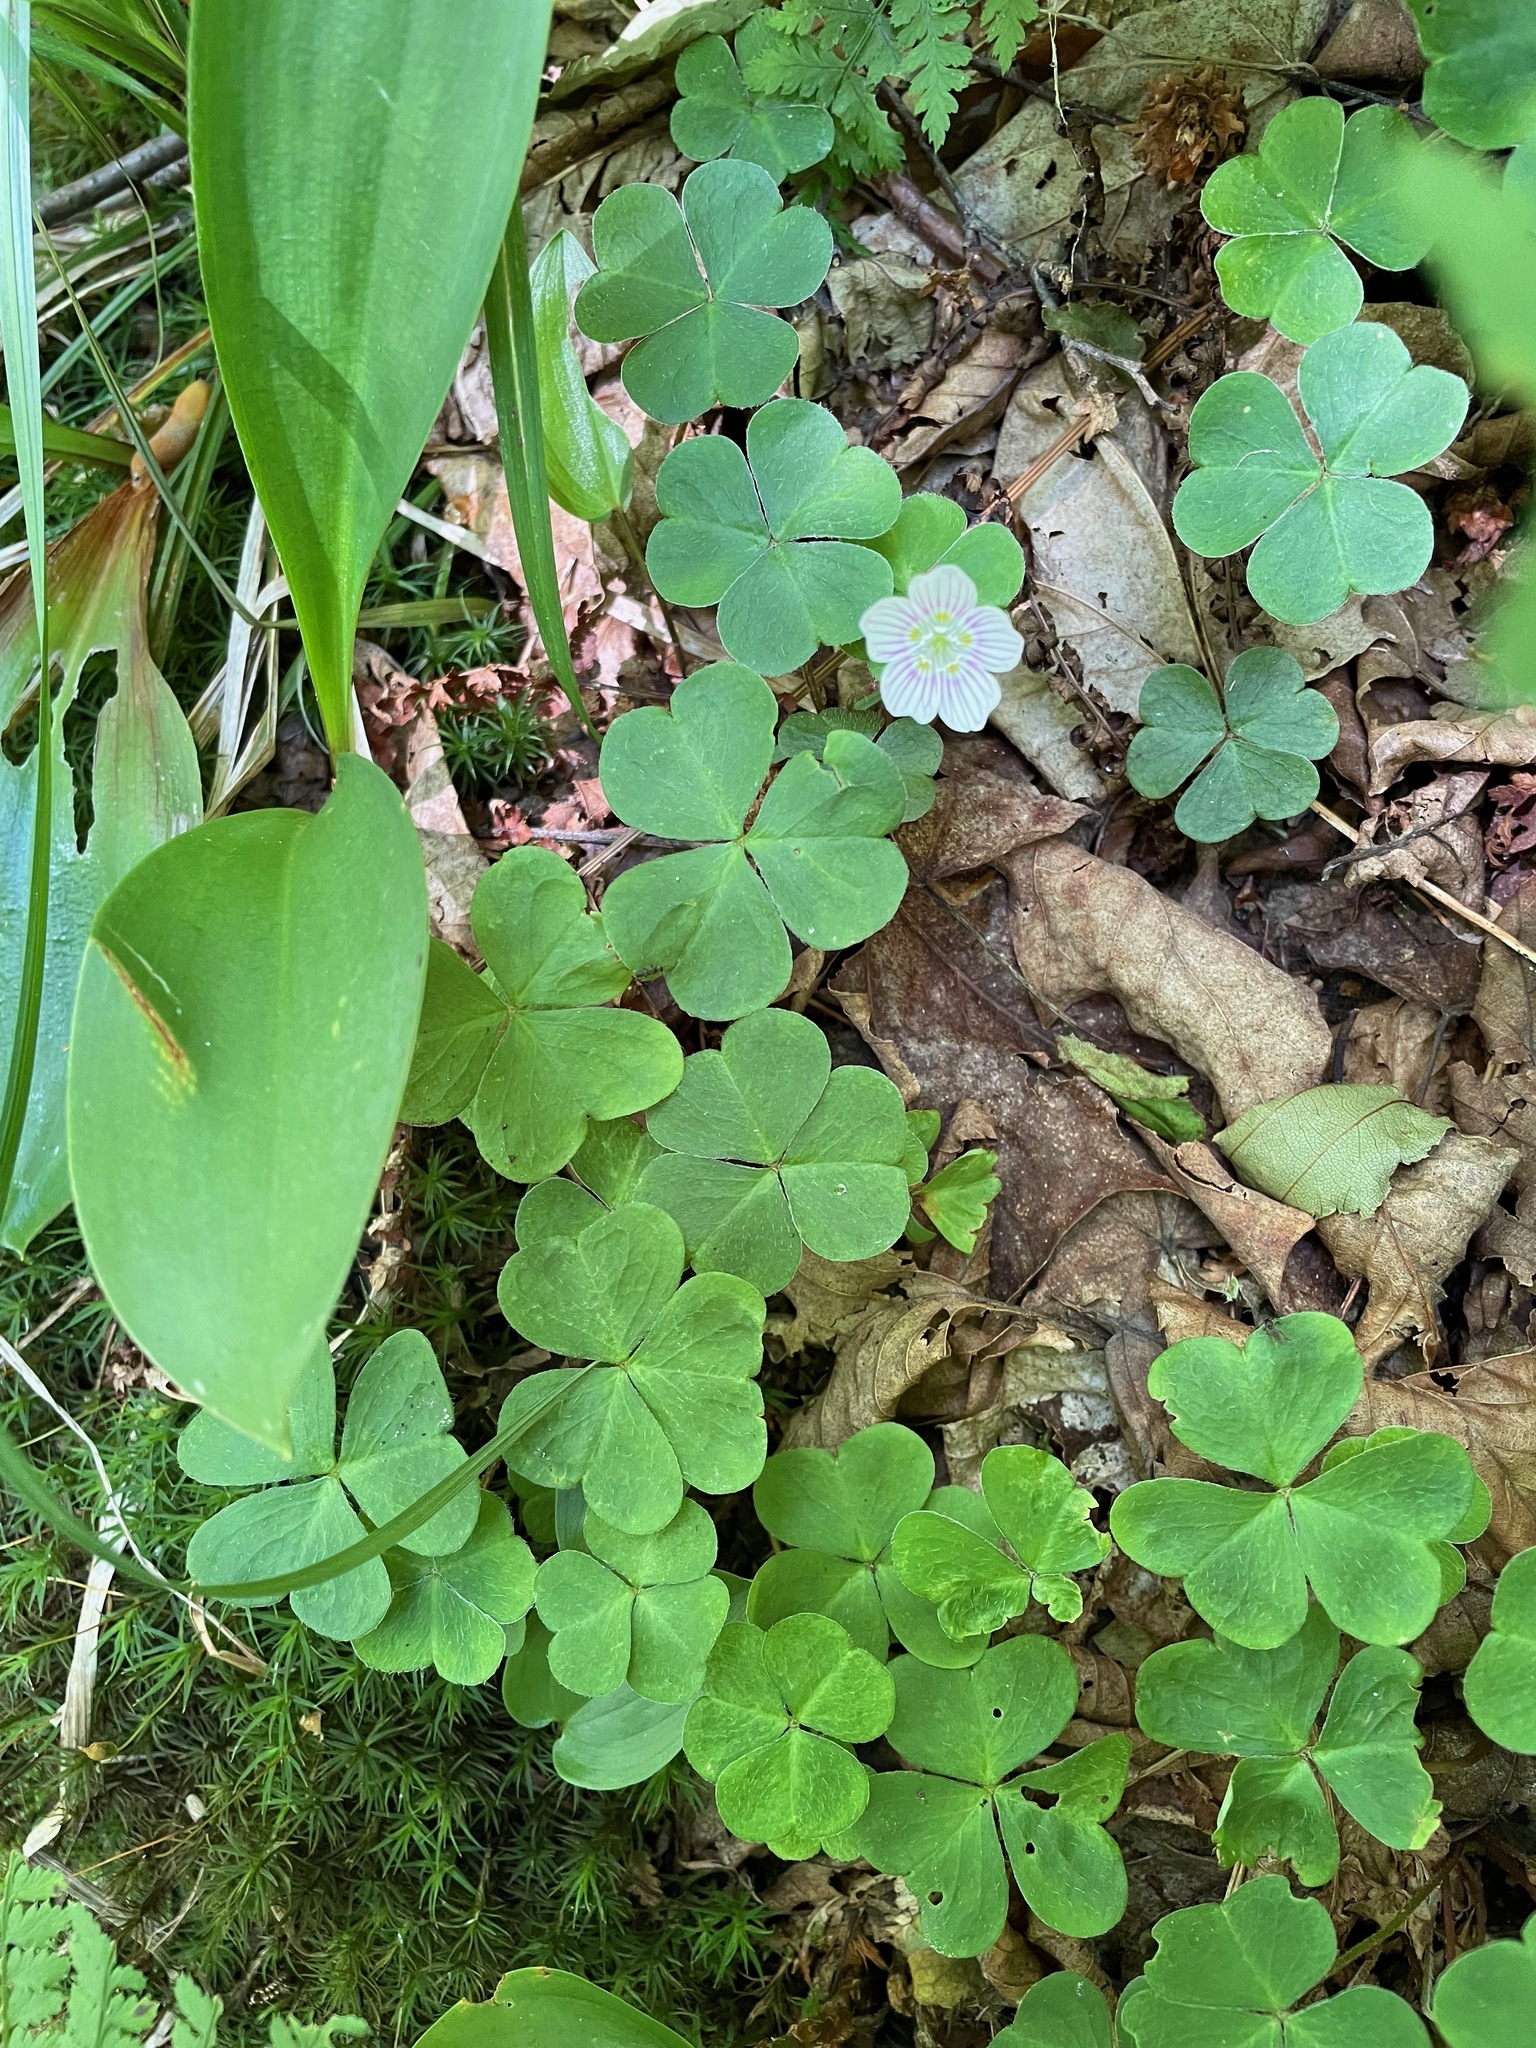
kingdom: Plantae
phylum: Tracheophyta
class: Magnoliopsida
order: Oxalidales
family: Oxalidaceae
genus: Oxalis
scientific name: Oxalis montana
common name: American wood-sorrel
